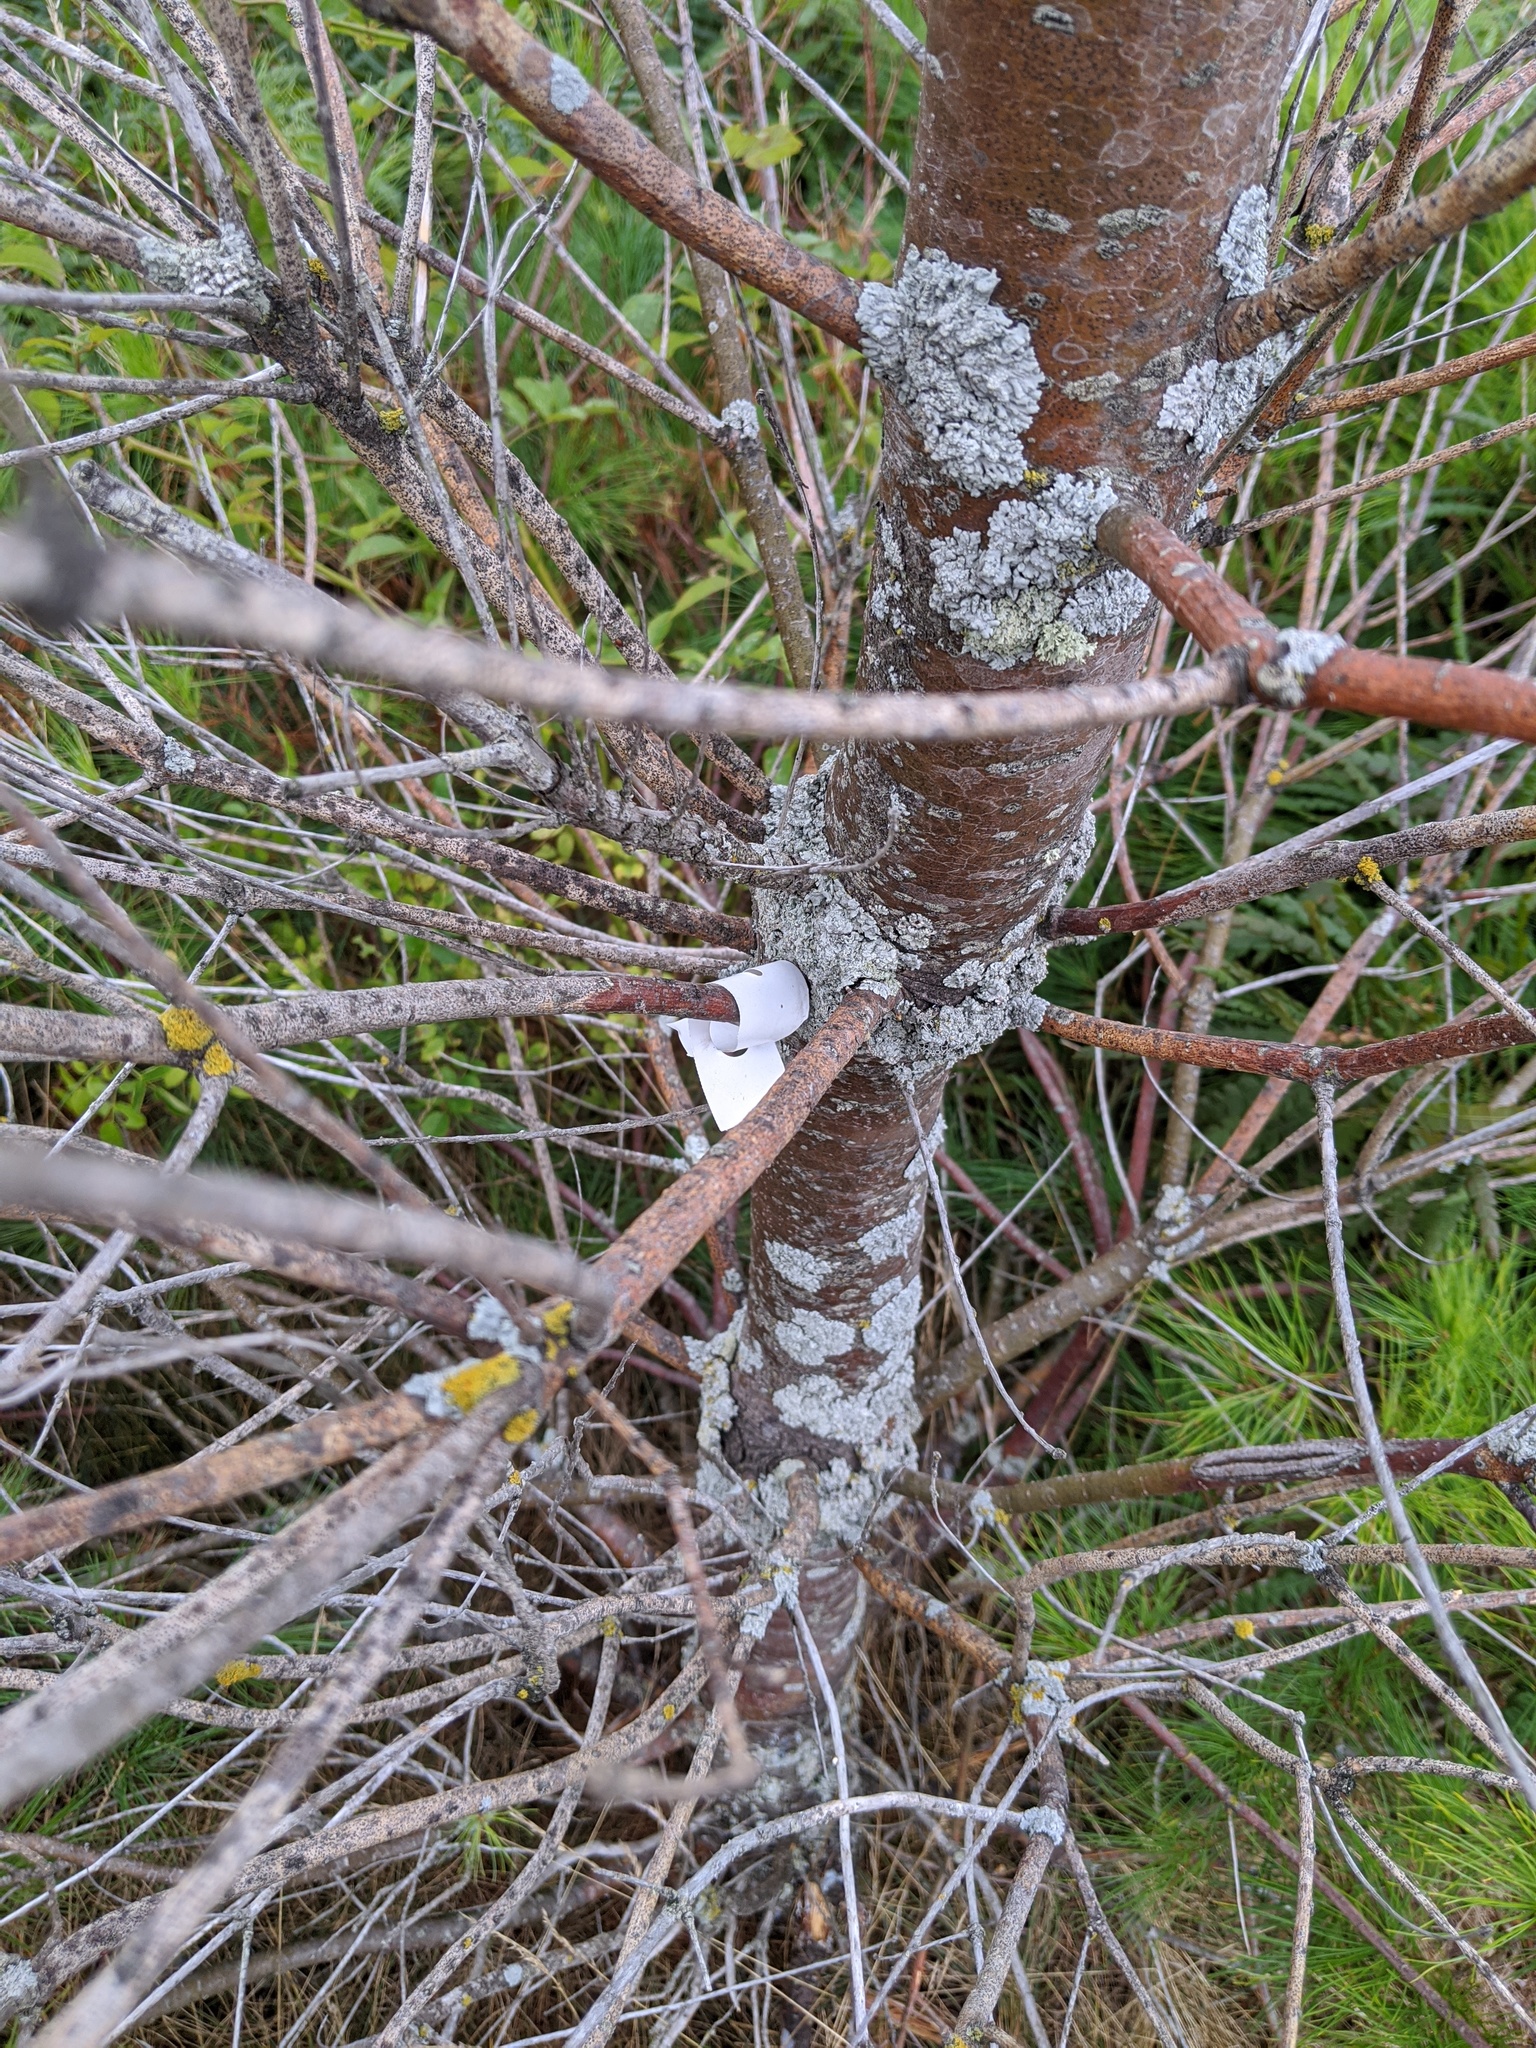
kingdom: Plantae
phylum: Tracheophyta
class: Pinopsida
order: Pinales
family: Pinaceae
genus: Pinus
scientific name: Pinus strobus
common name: Weymouth pine
